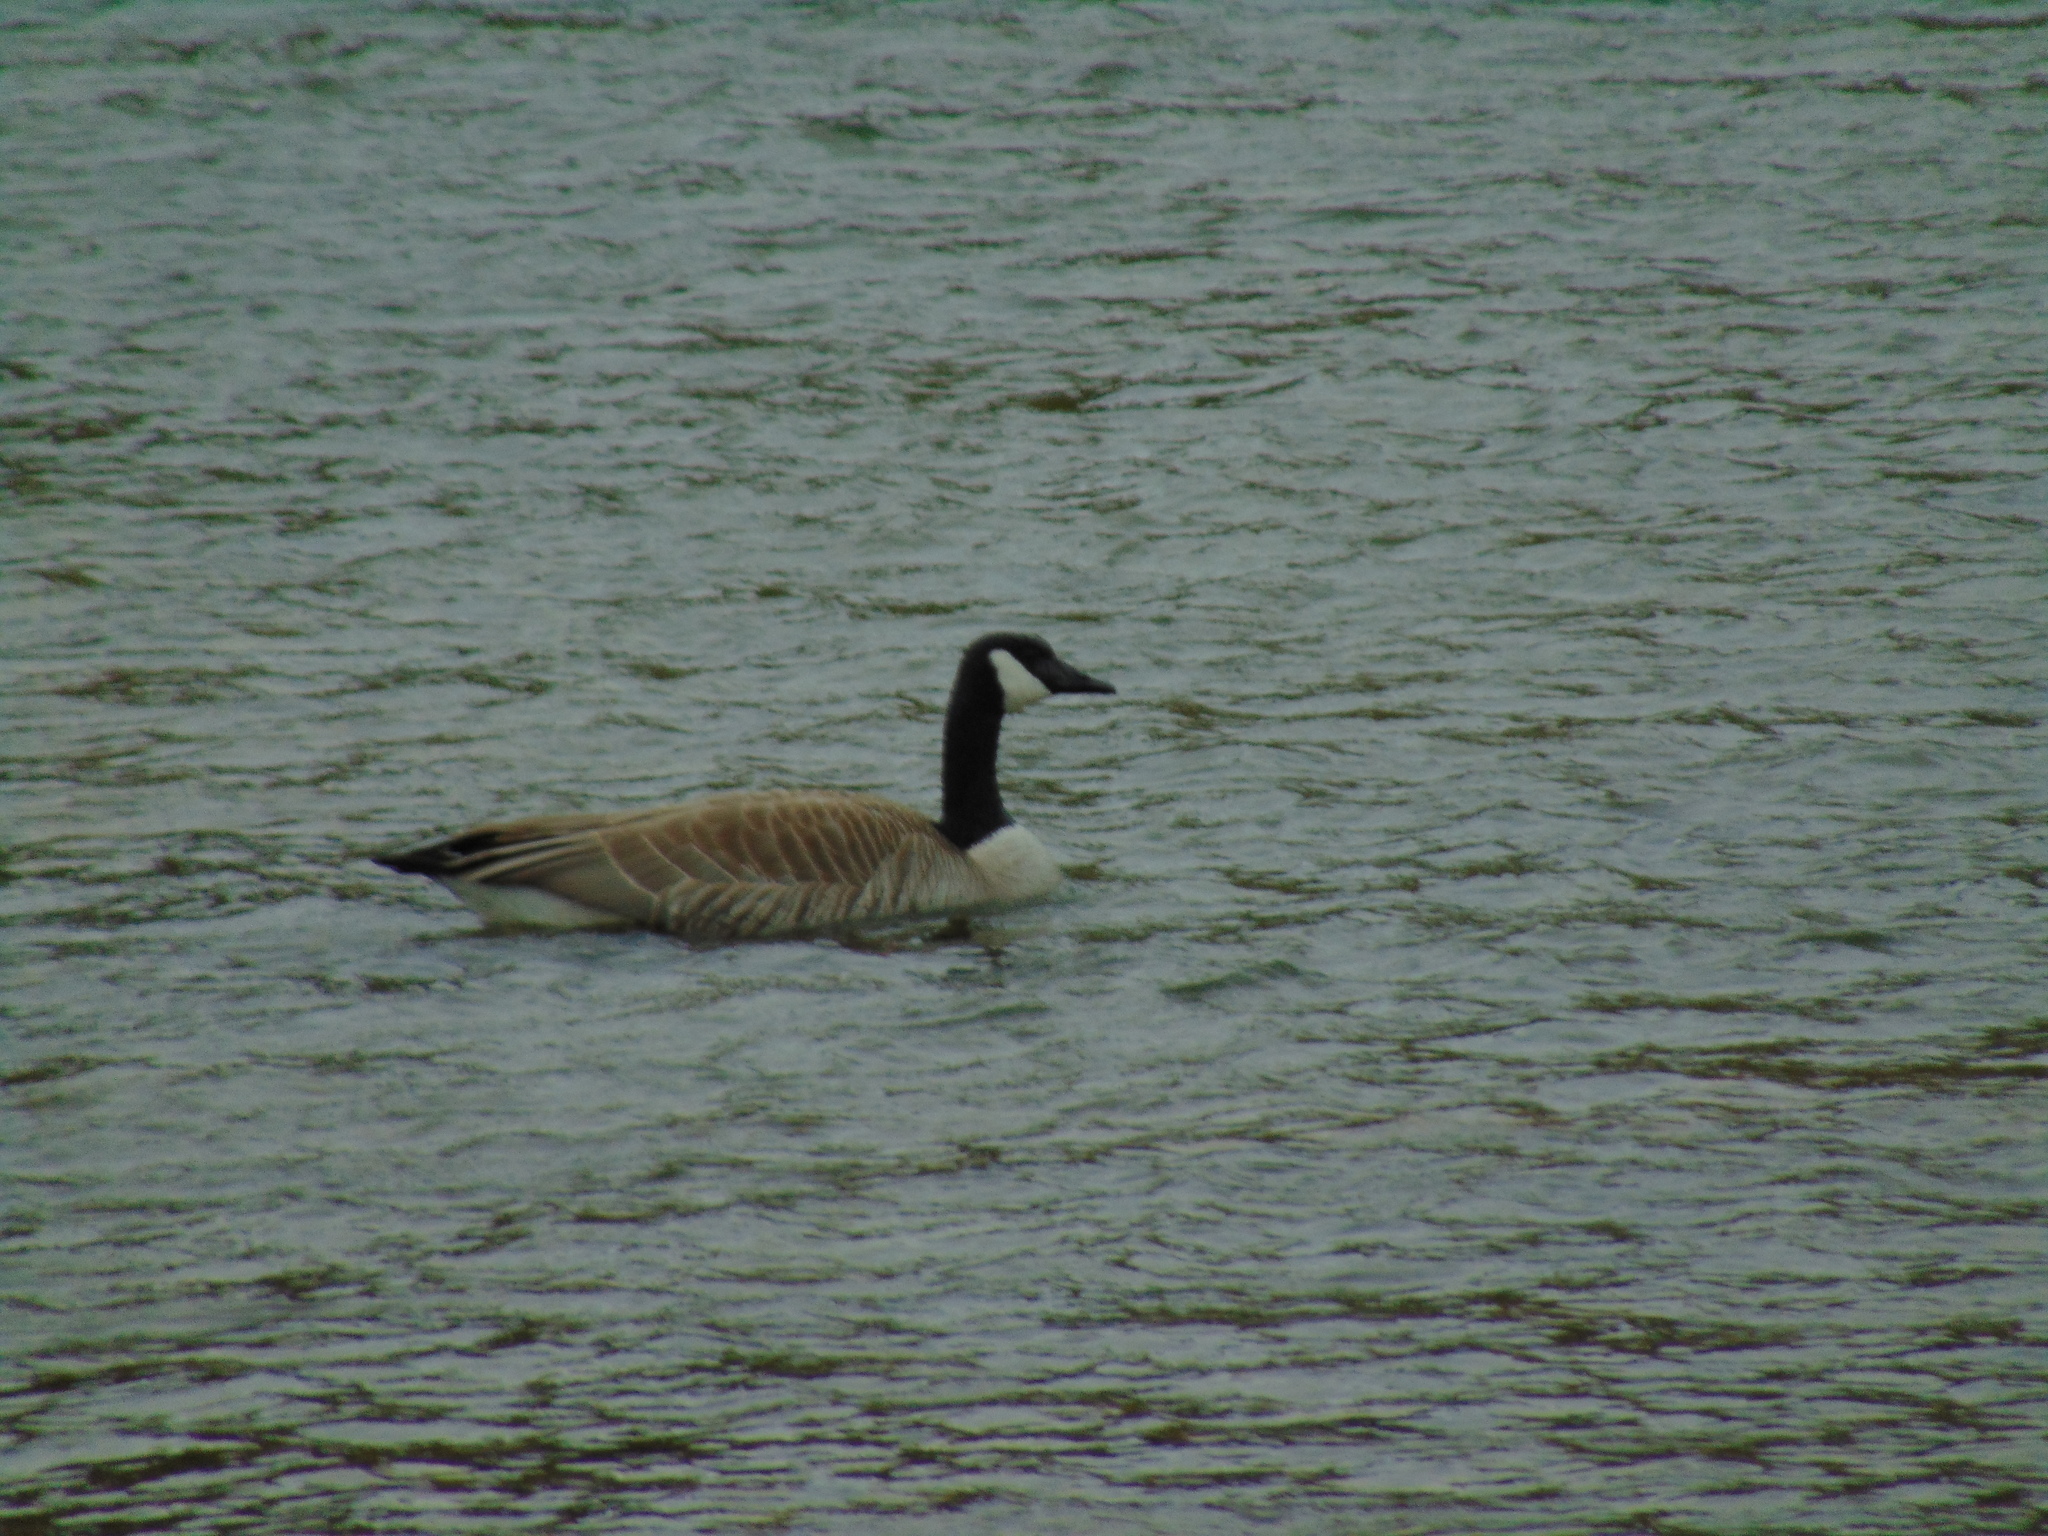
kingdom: Animalia
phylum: Chordata
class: Aves
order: Anseriformes
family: Anatidae
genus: Branta
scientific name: Branta canadensis
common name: Canada goose
